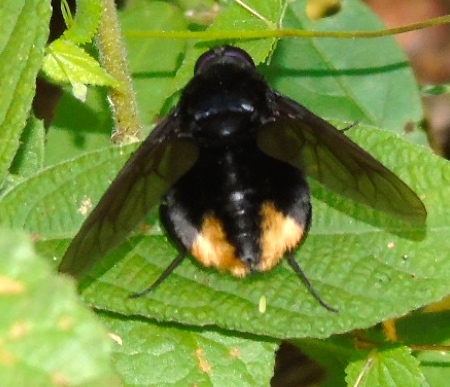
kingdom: Animalia
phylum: Arthropoda
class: Insecta
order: Diptera
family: Bombyliidae
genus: Bryodemina
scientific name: Bryodemina valida
